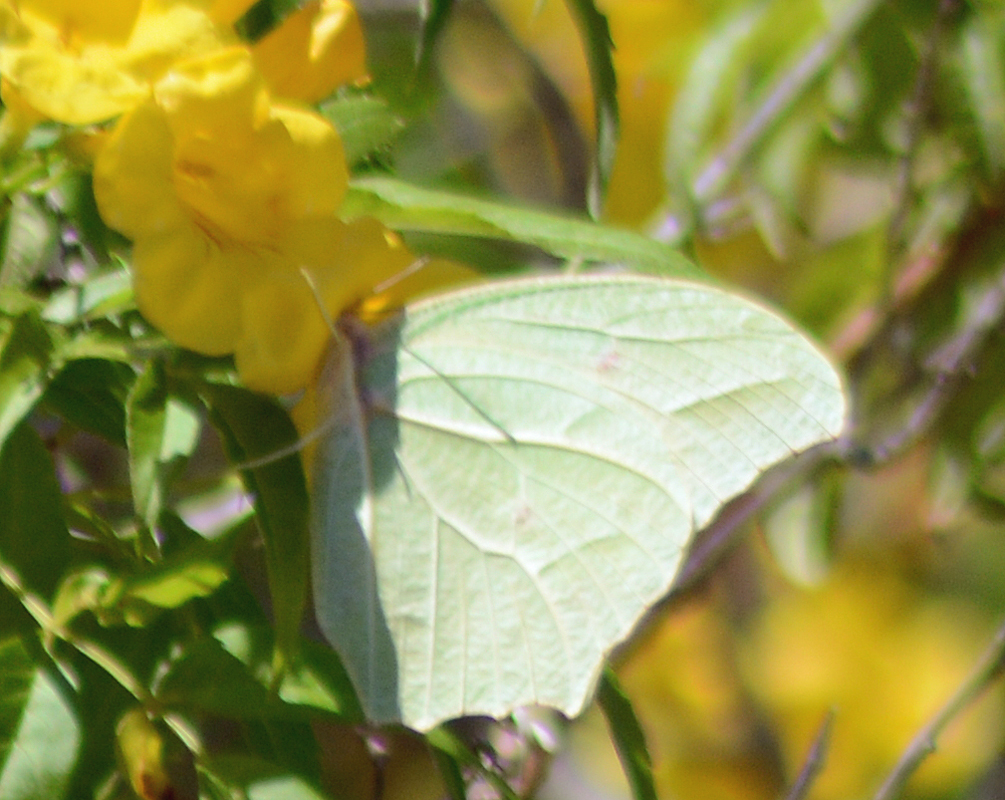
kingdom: Animalia
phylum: Arthropoda
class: Insecta
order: Lepidoptera
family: Pieridae
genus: Anteos
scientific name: Anteos clorinde
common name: White angled sulphur
